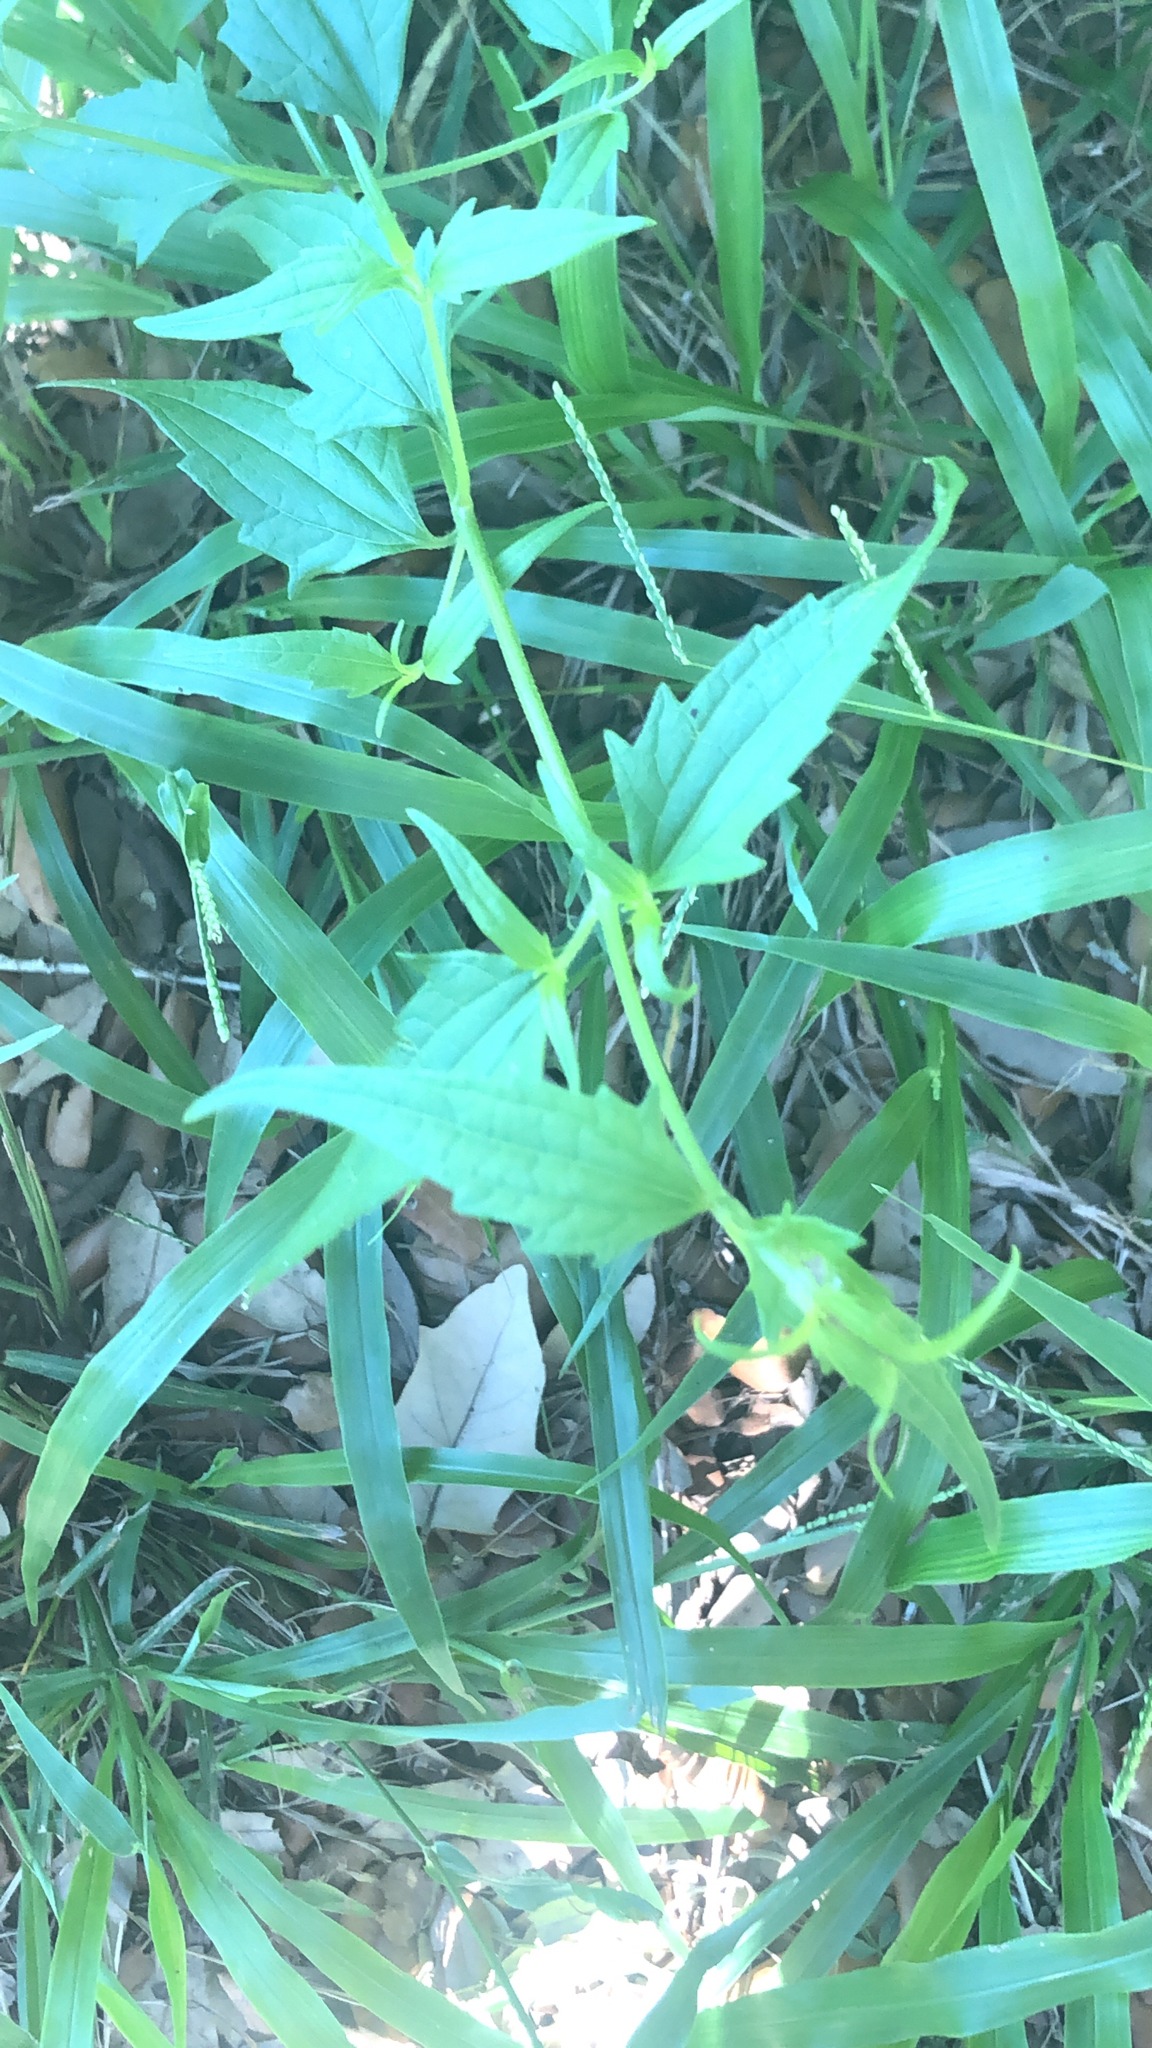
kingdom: Plantae
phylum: Tracheophyta
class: Magnoliopsida
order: Asterales
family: Asteraceae
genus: Chromolaena
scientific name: Chromolaena odorata
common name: Siamweed
